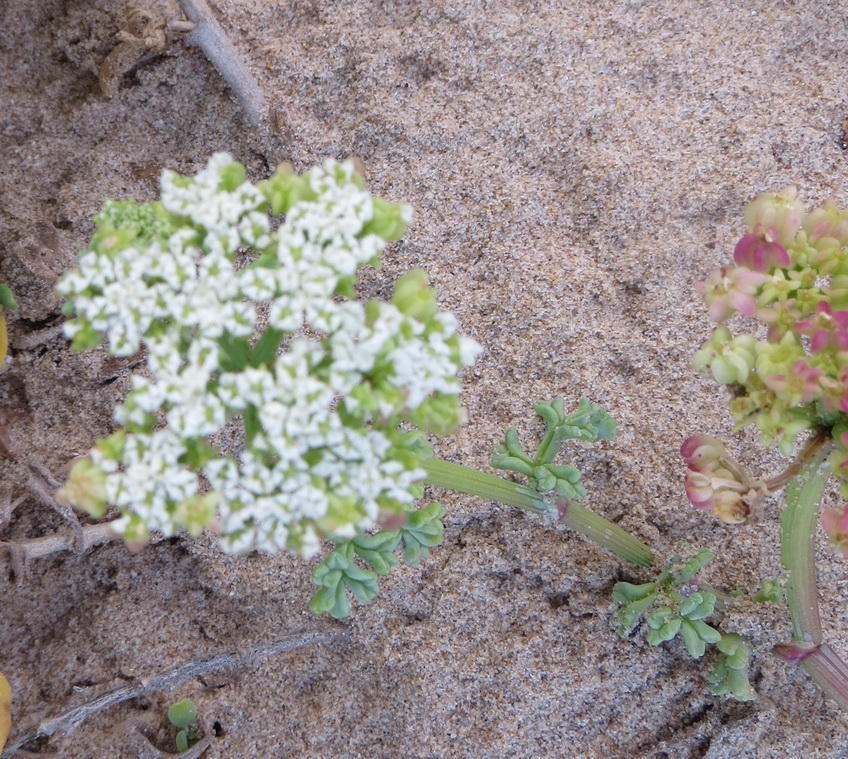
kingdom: Plantae
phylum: Tracheophyta
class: Magnoliopsida
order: Apiales
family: Apiaceae
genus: Dasispermum
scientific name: Dasispermum suffruticosum
